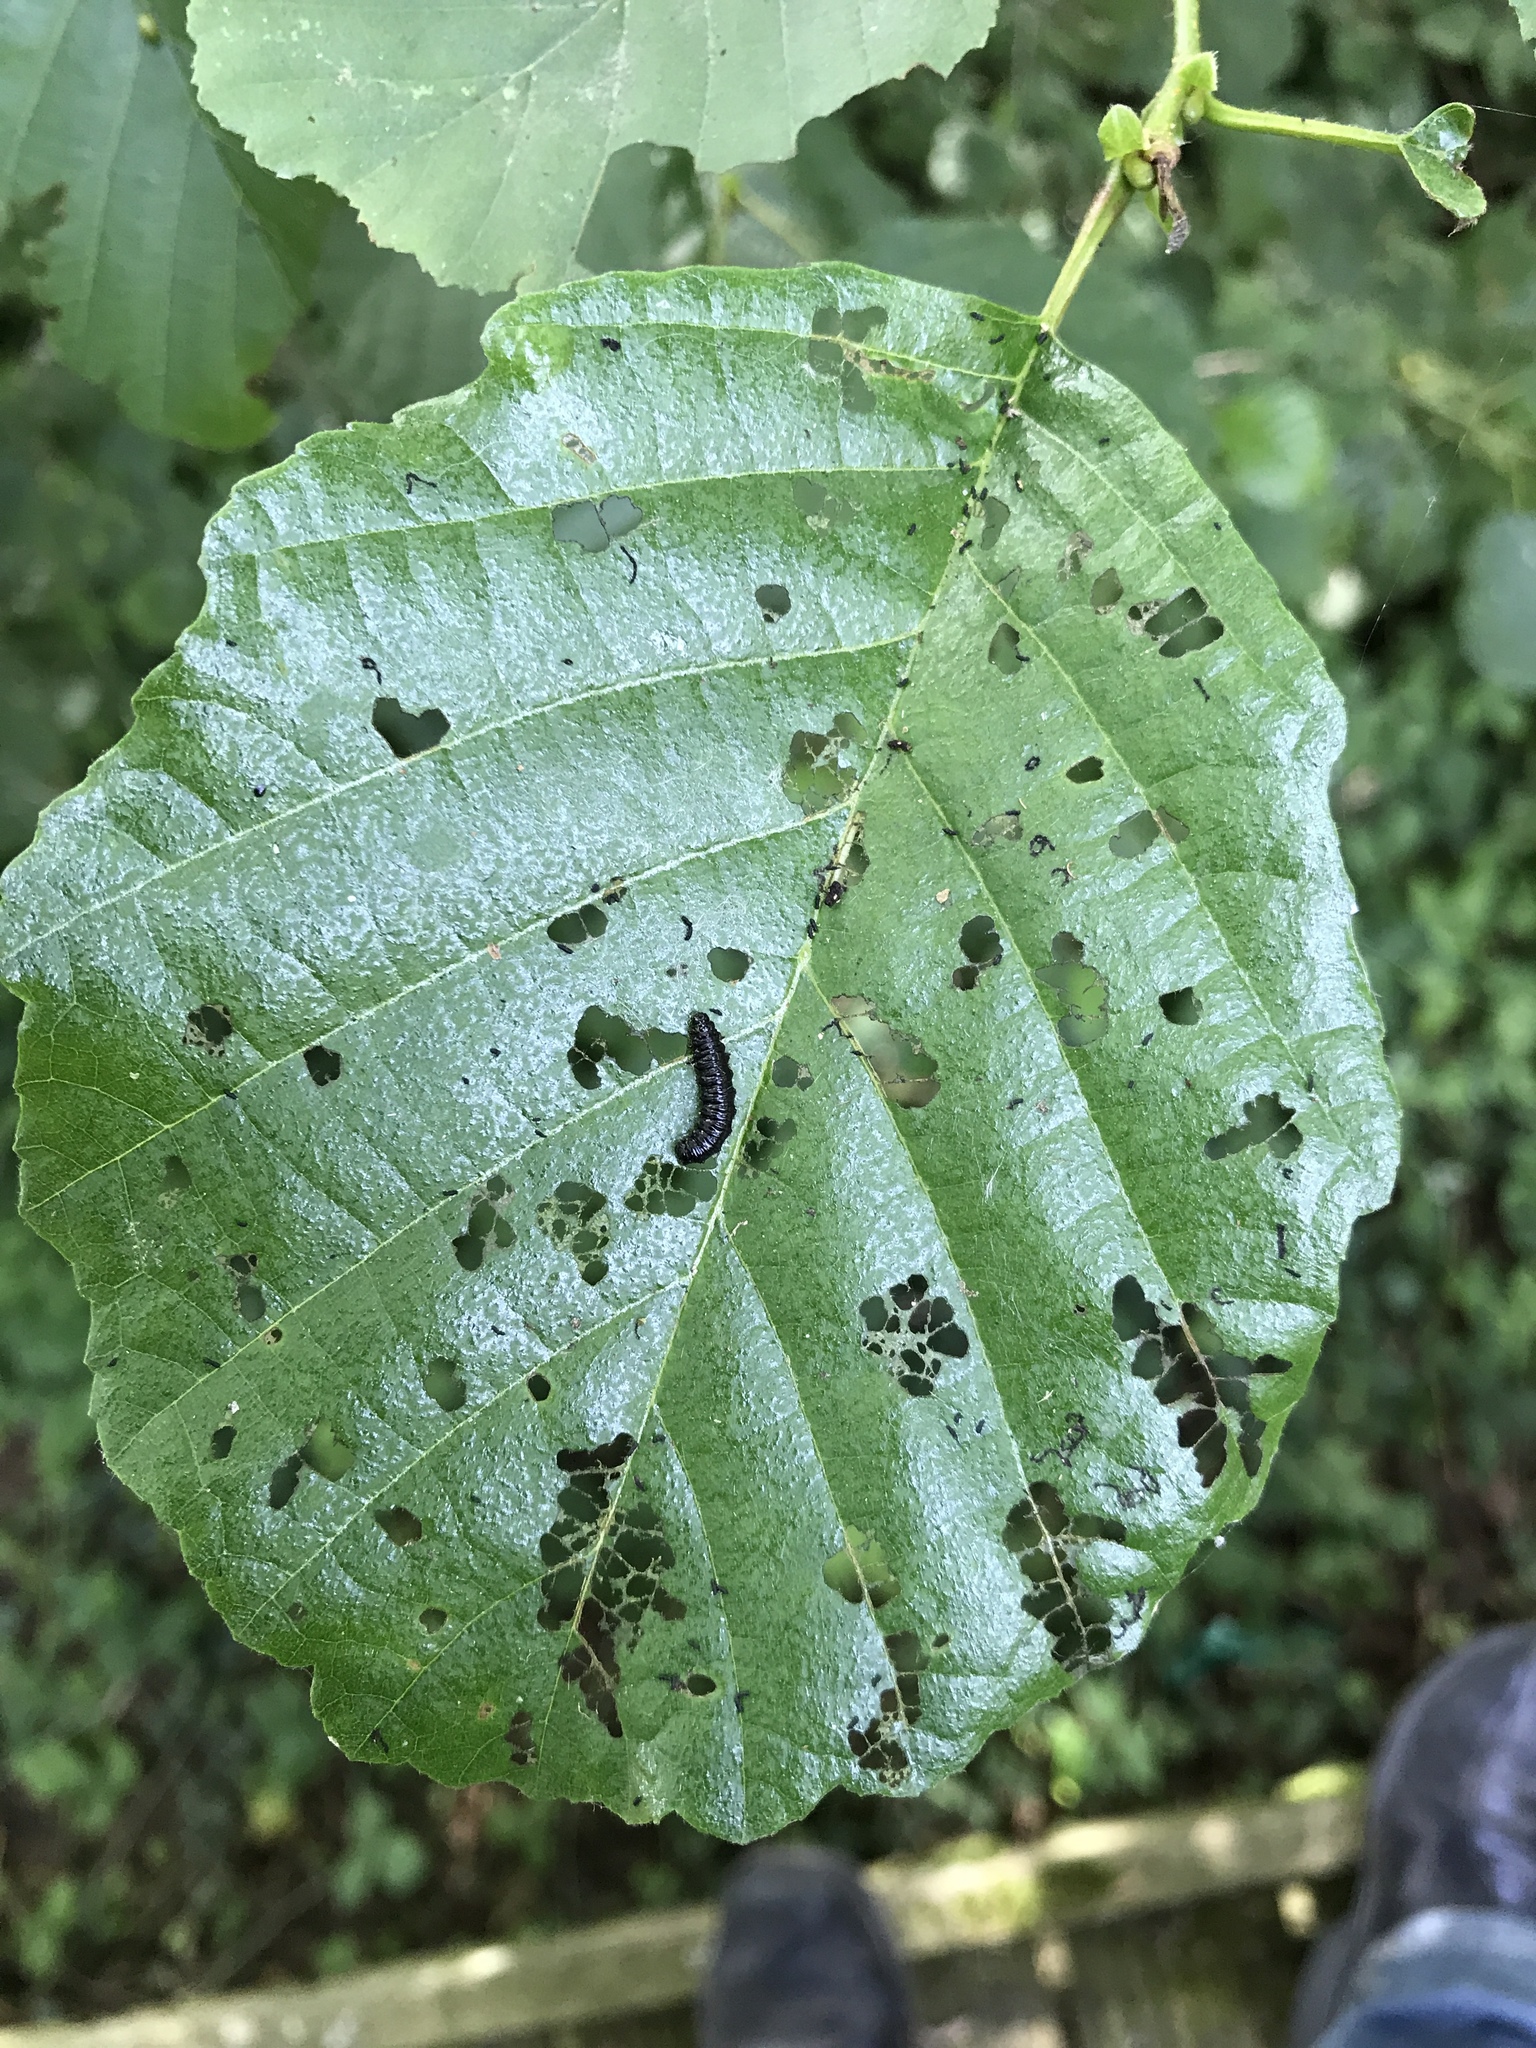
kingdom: Animalia
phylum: Arthropoda
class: Insecta
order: Coleoptera
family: Chrysomelidae
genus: Agelastica
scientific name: Agelastica alni
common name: Alder leaf beetle
